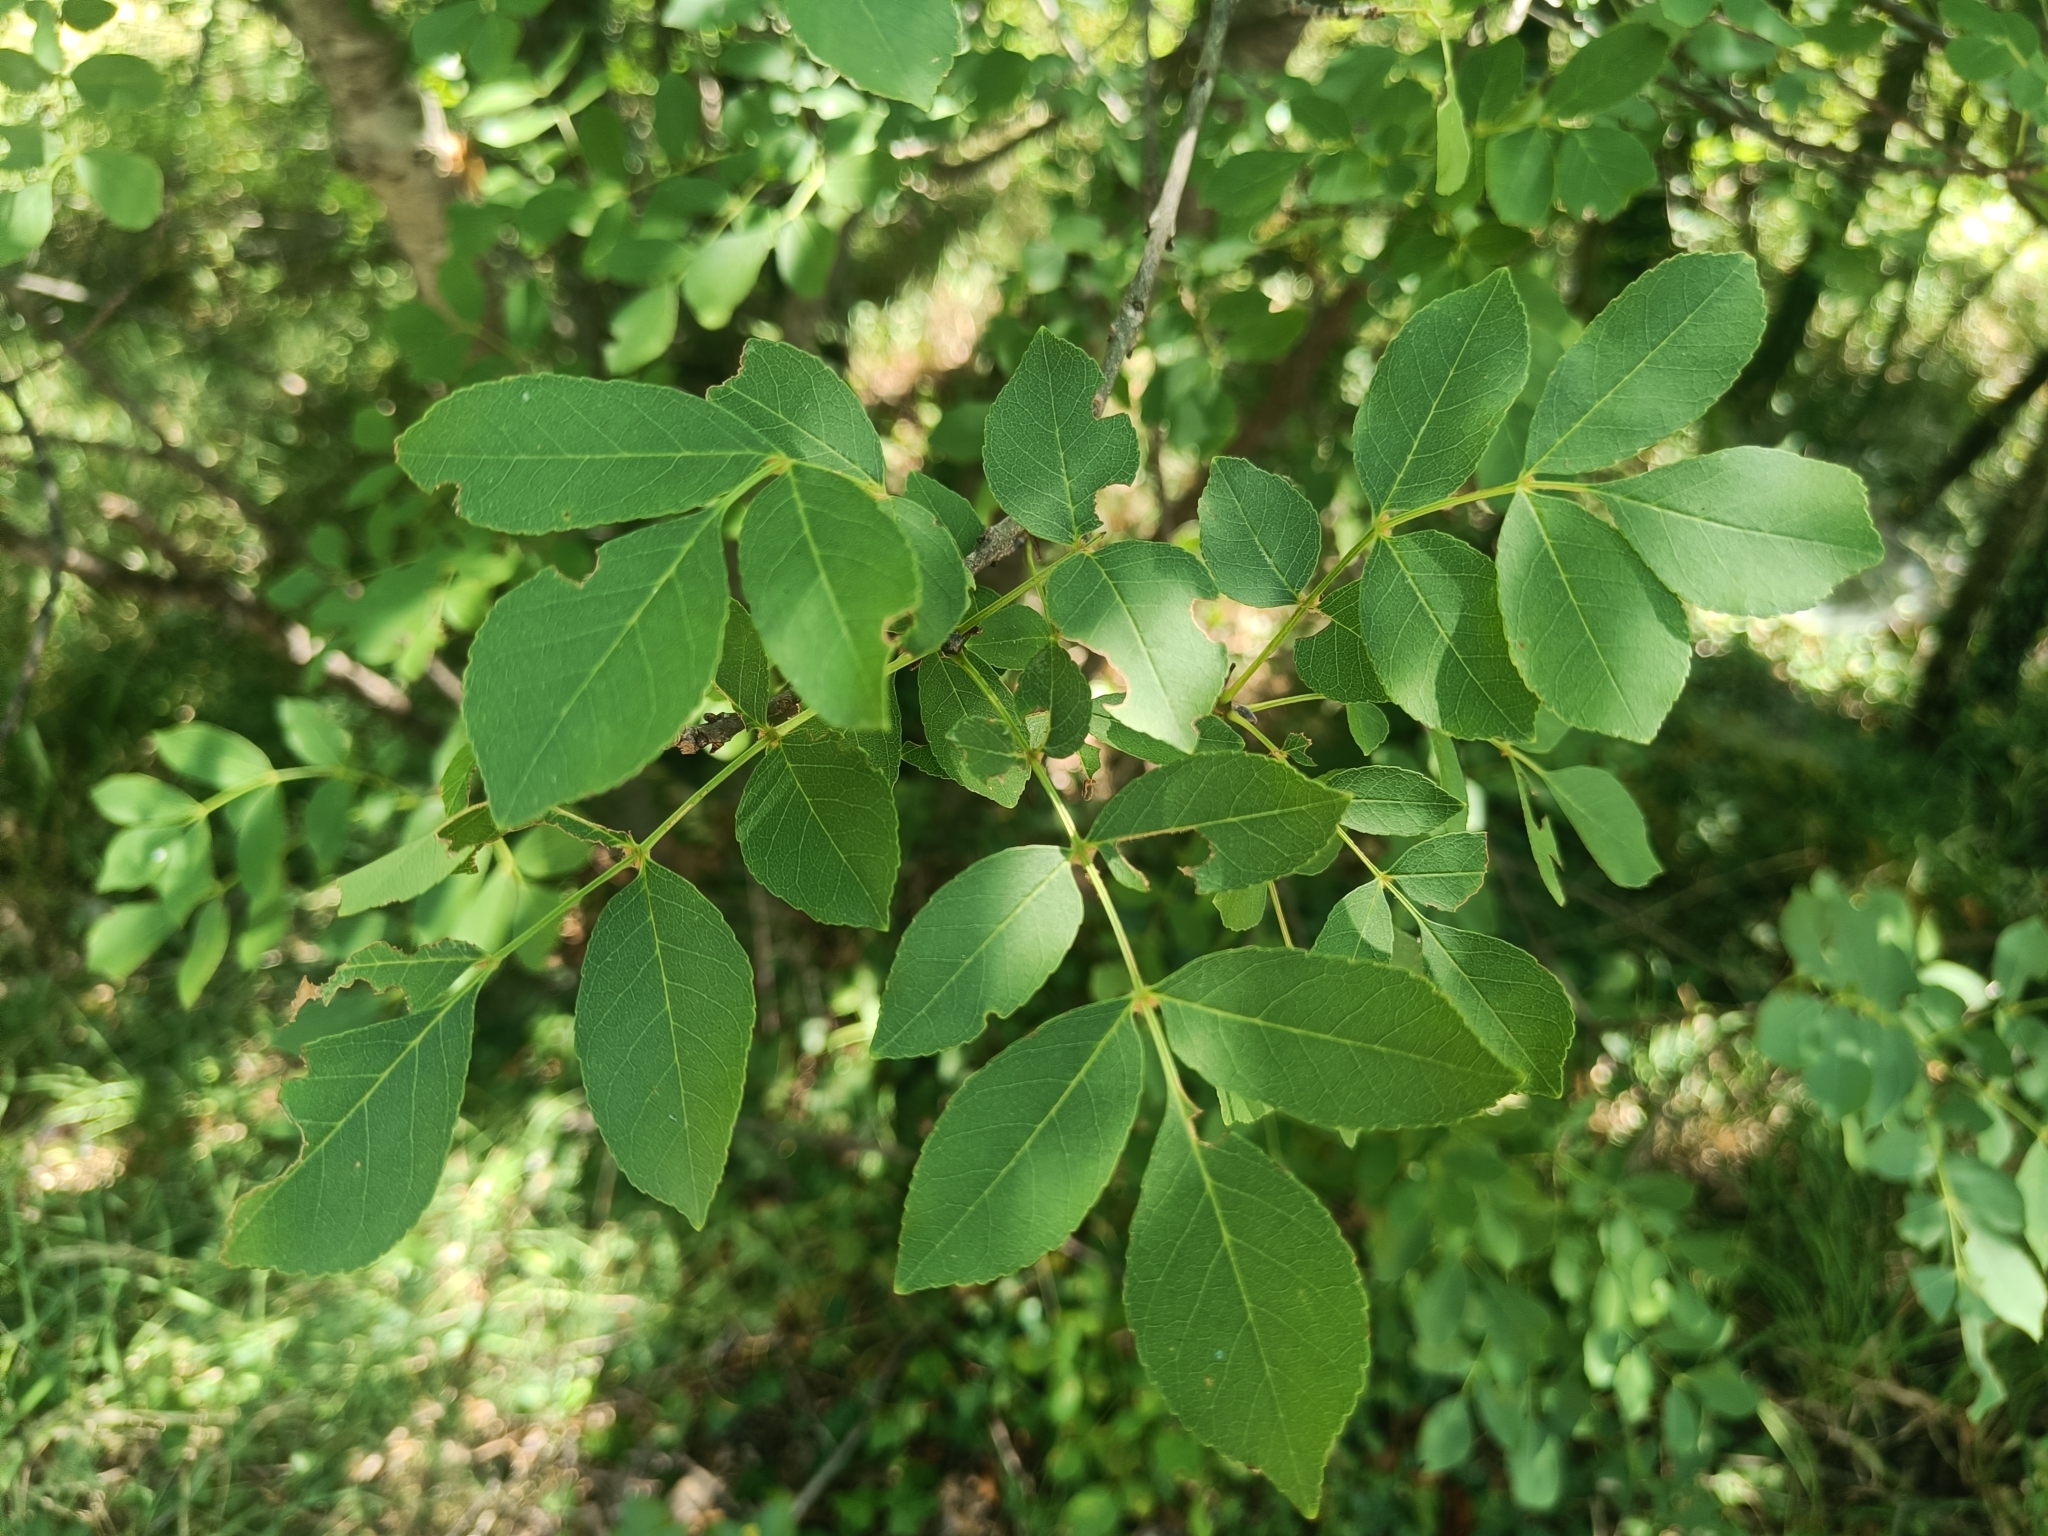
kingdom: Plantae
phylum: Tracheophyta
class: Magnoliopsida
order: Lamiales
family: Oleaceae
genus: Fraxinus
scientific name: Fraxinus ornus
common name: Manna ash
